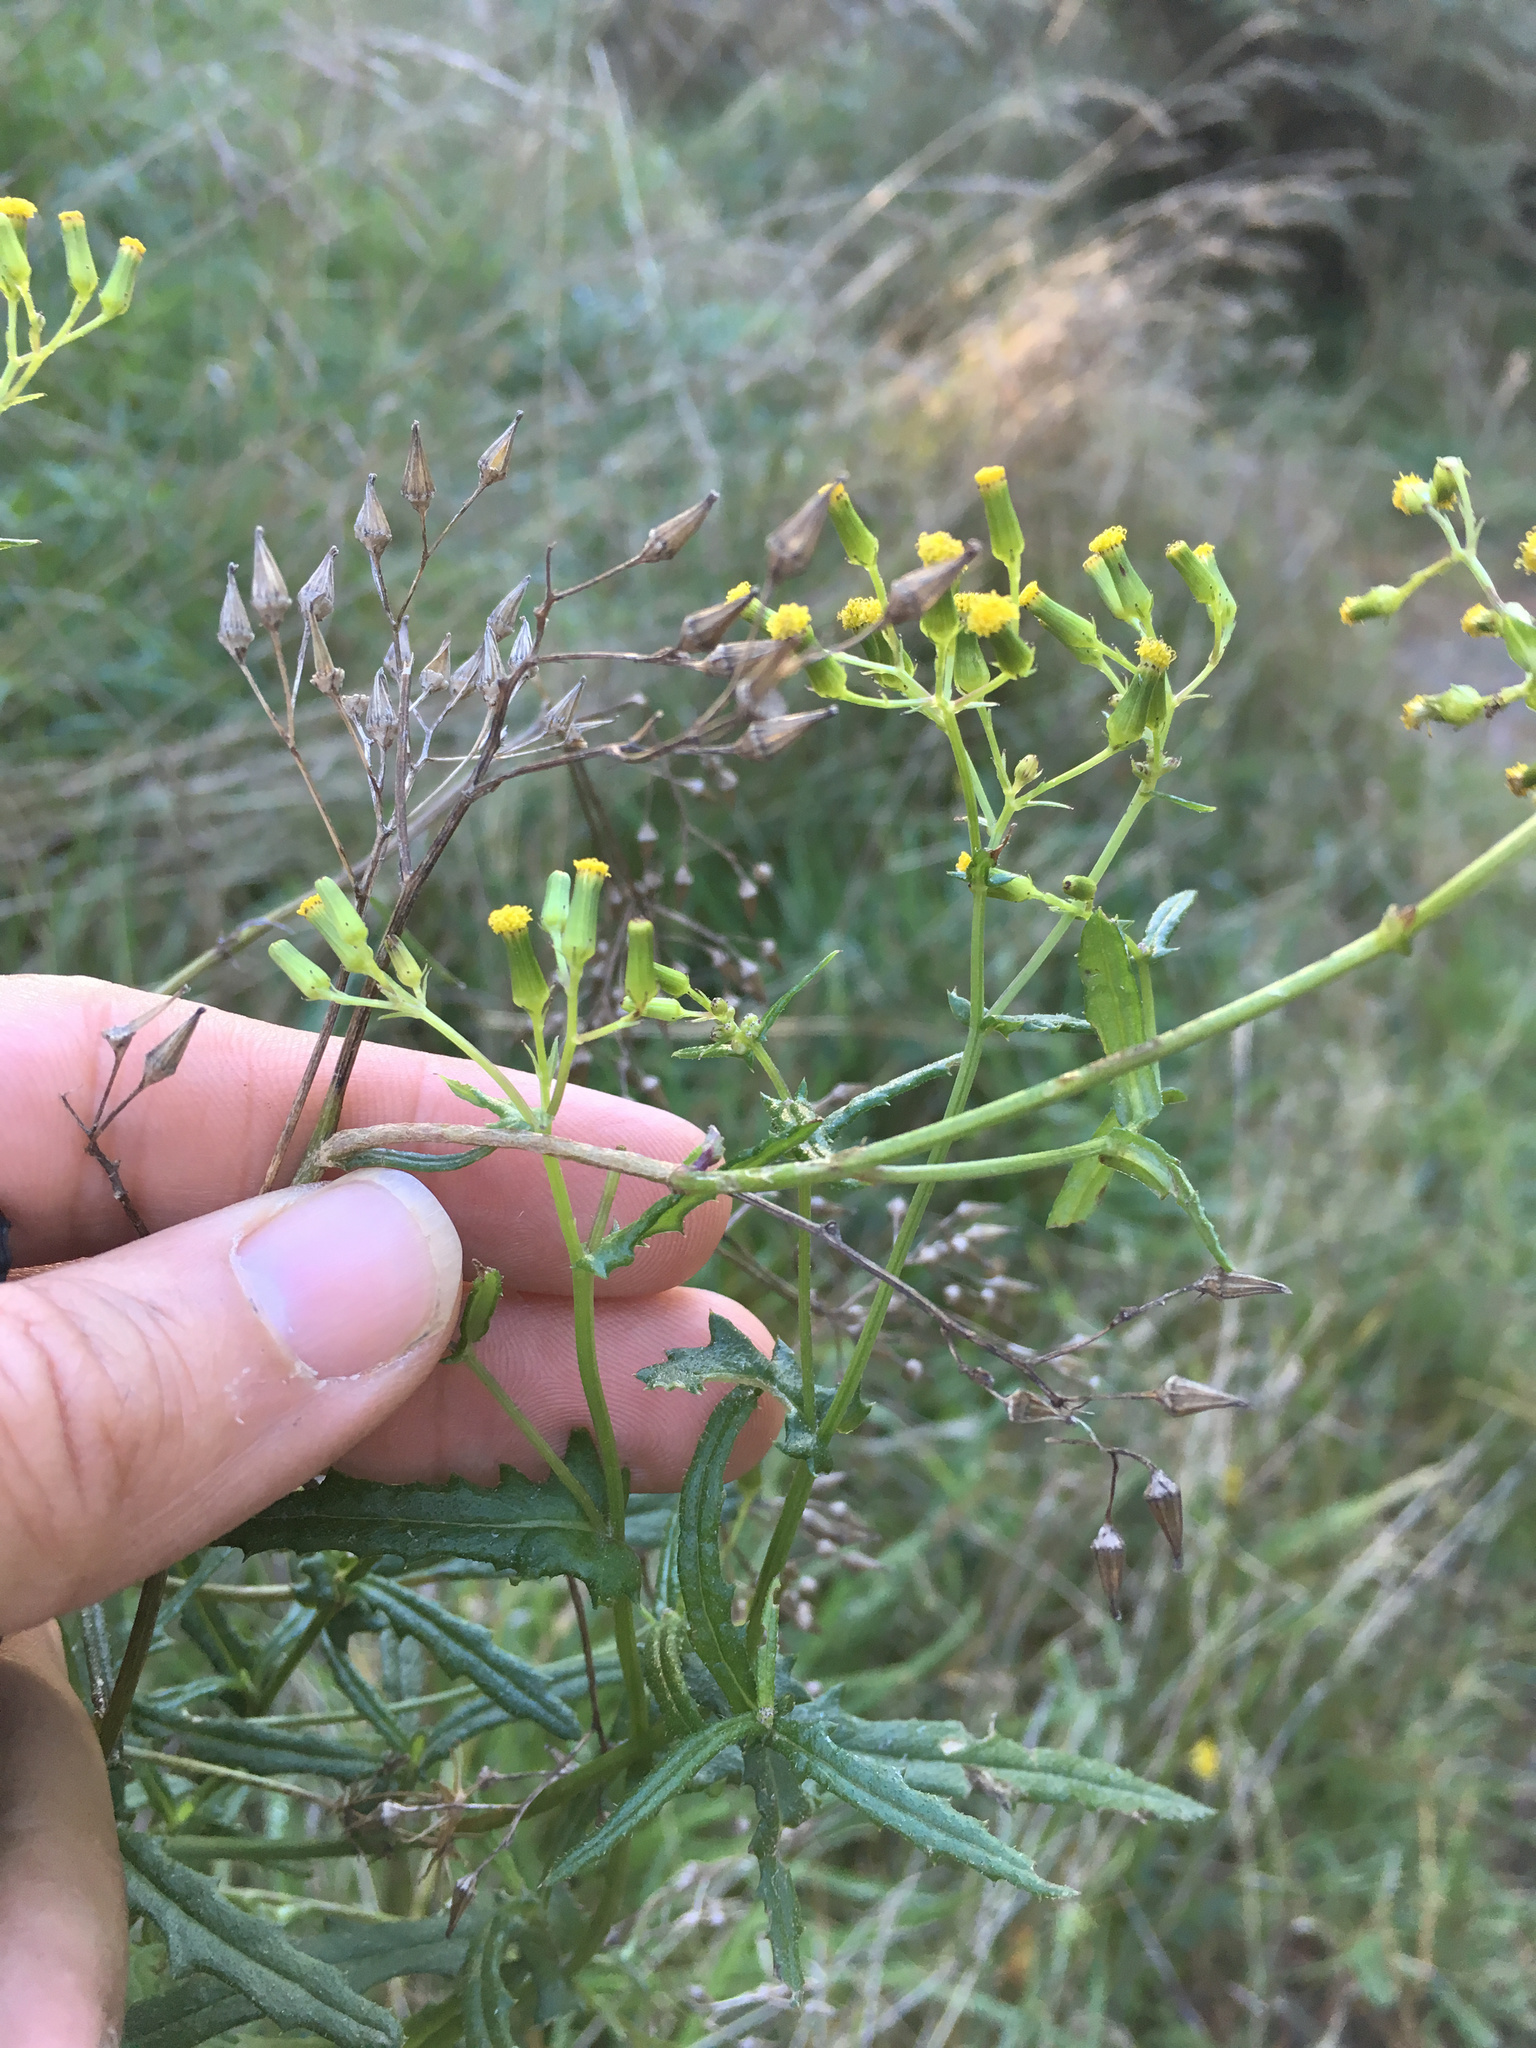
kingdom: Plantae
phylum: Tracheophyta
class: Magnoliopsida
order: Asterales
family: Asteraceae
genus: Senecio
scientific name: Senecio hispidulus
